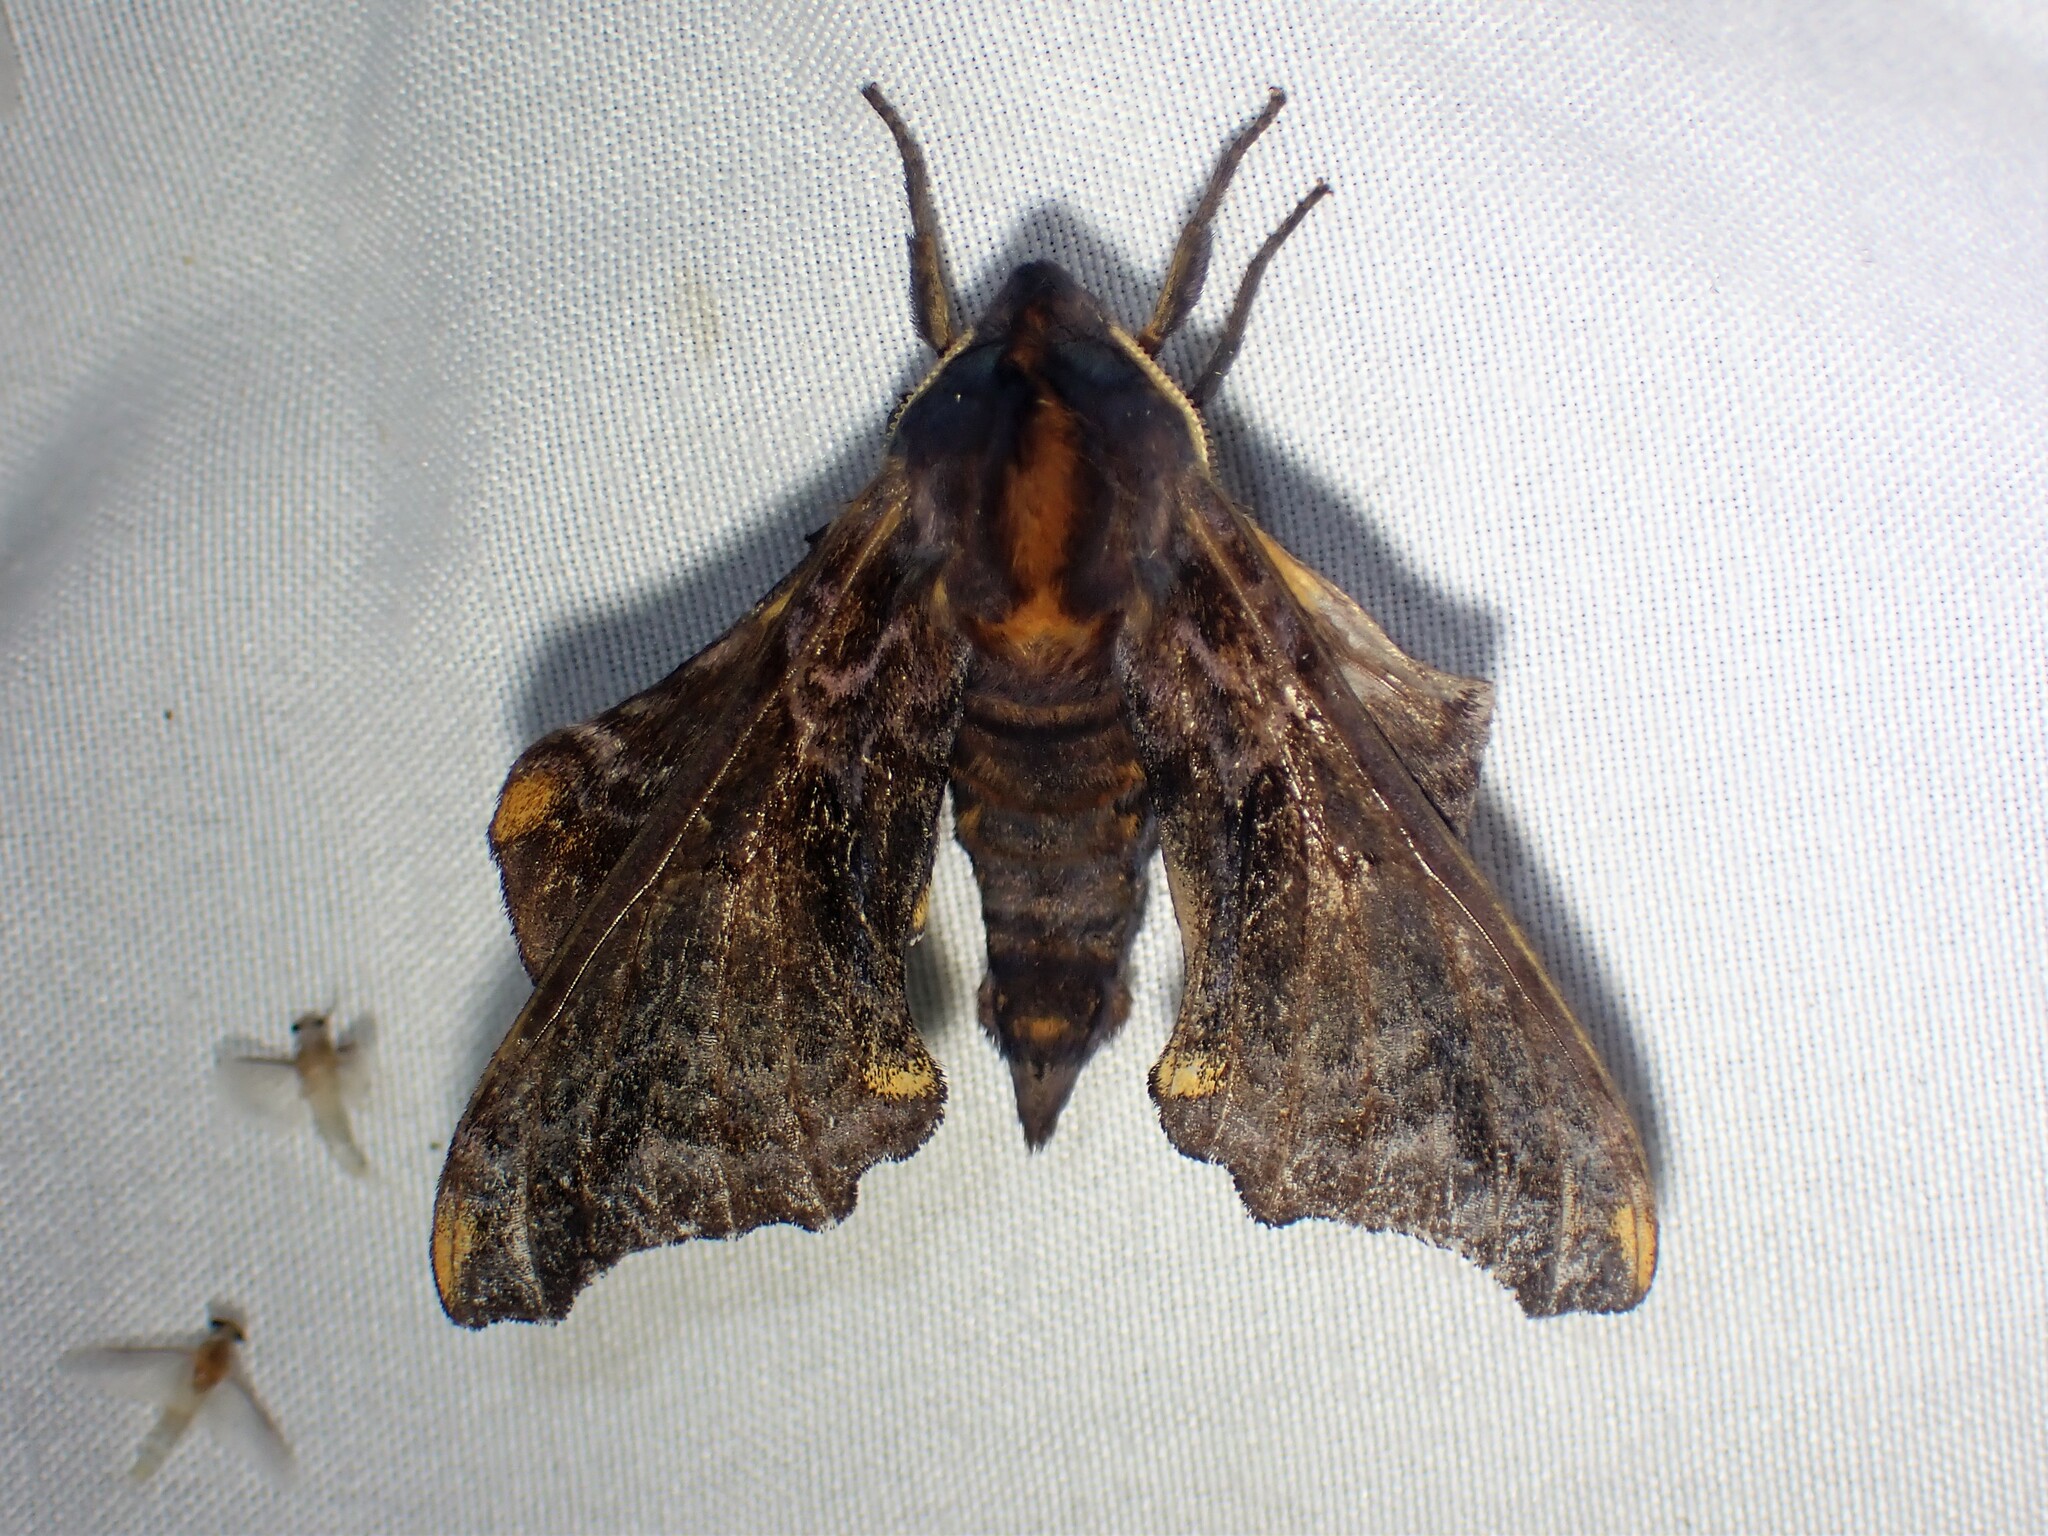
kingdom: Animalia
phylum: Arthropoda
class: Insecta
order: Lepidoptera
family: Sphingidae
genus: Paonias
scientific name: Paonias myops
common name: Small-eyed sphinx
